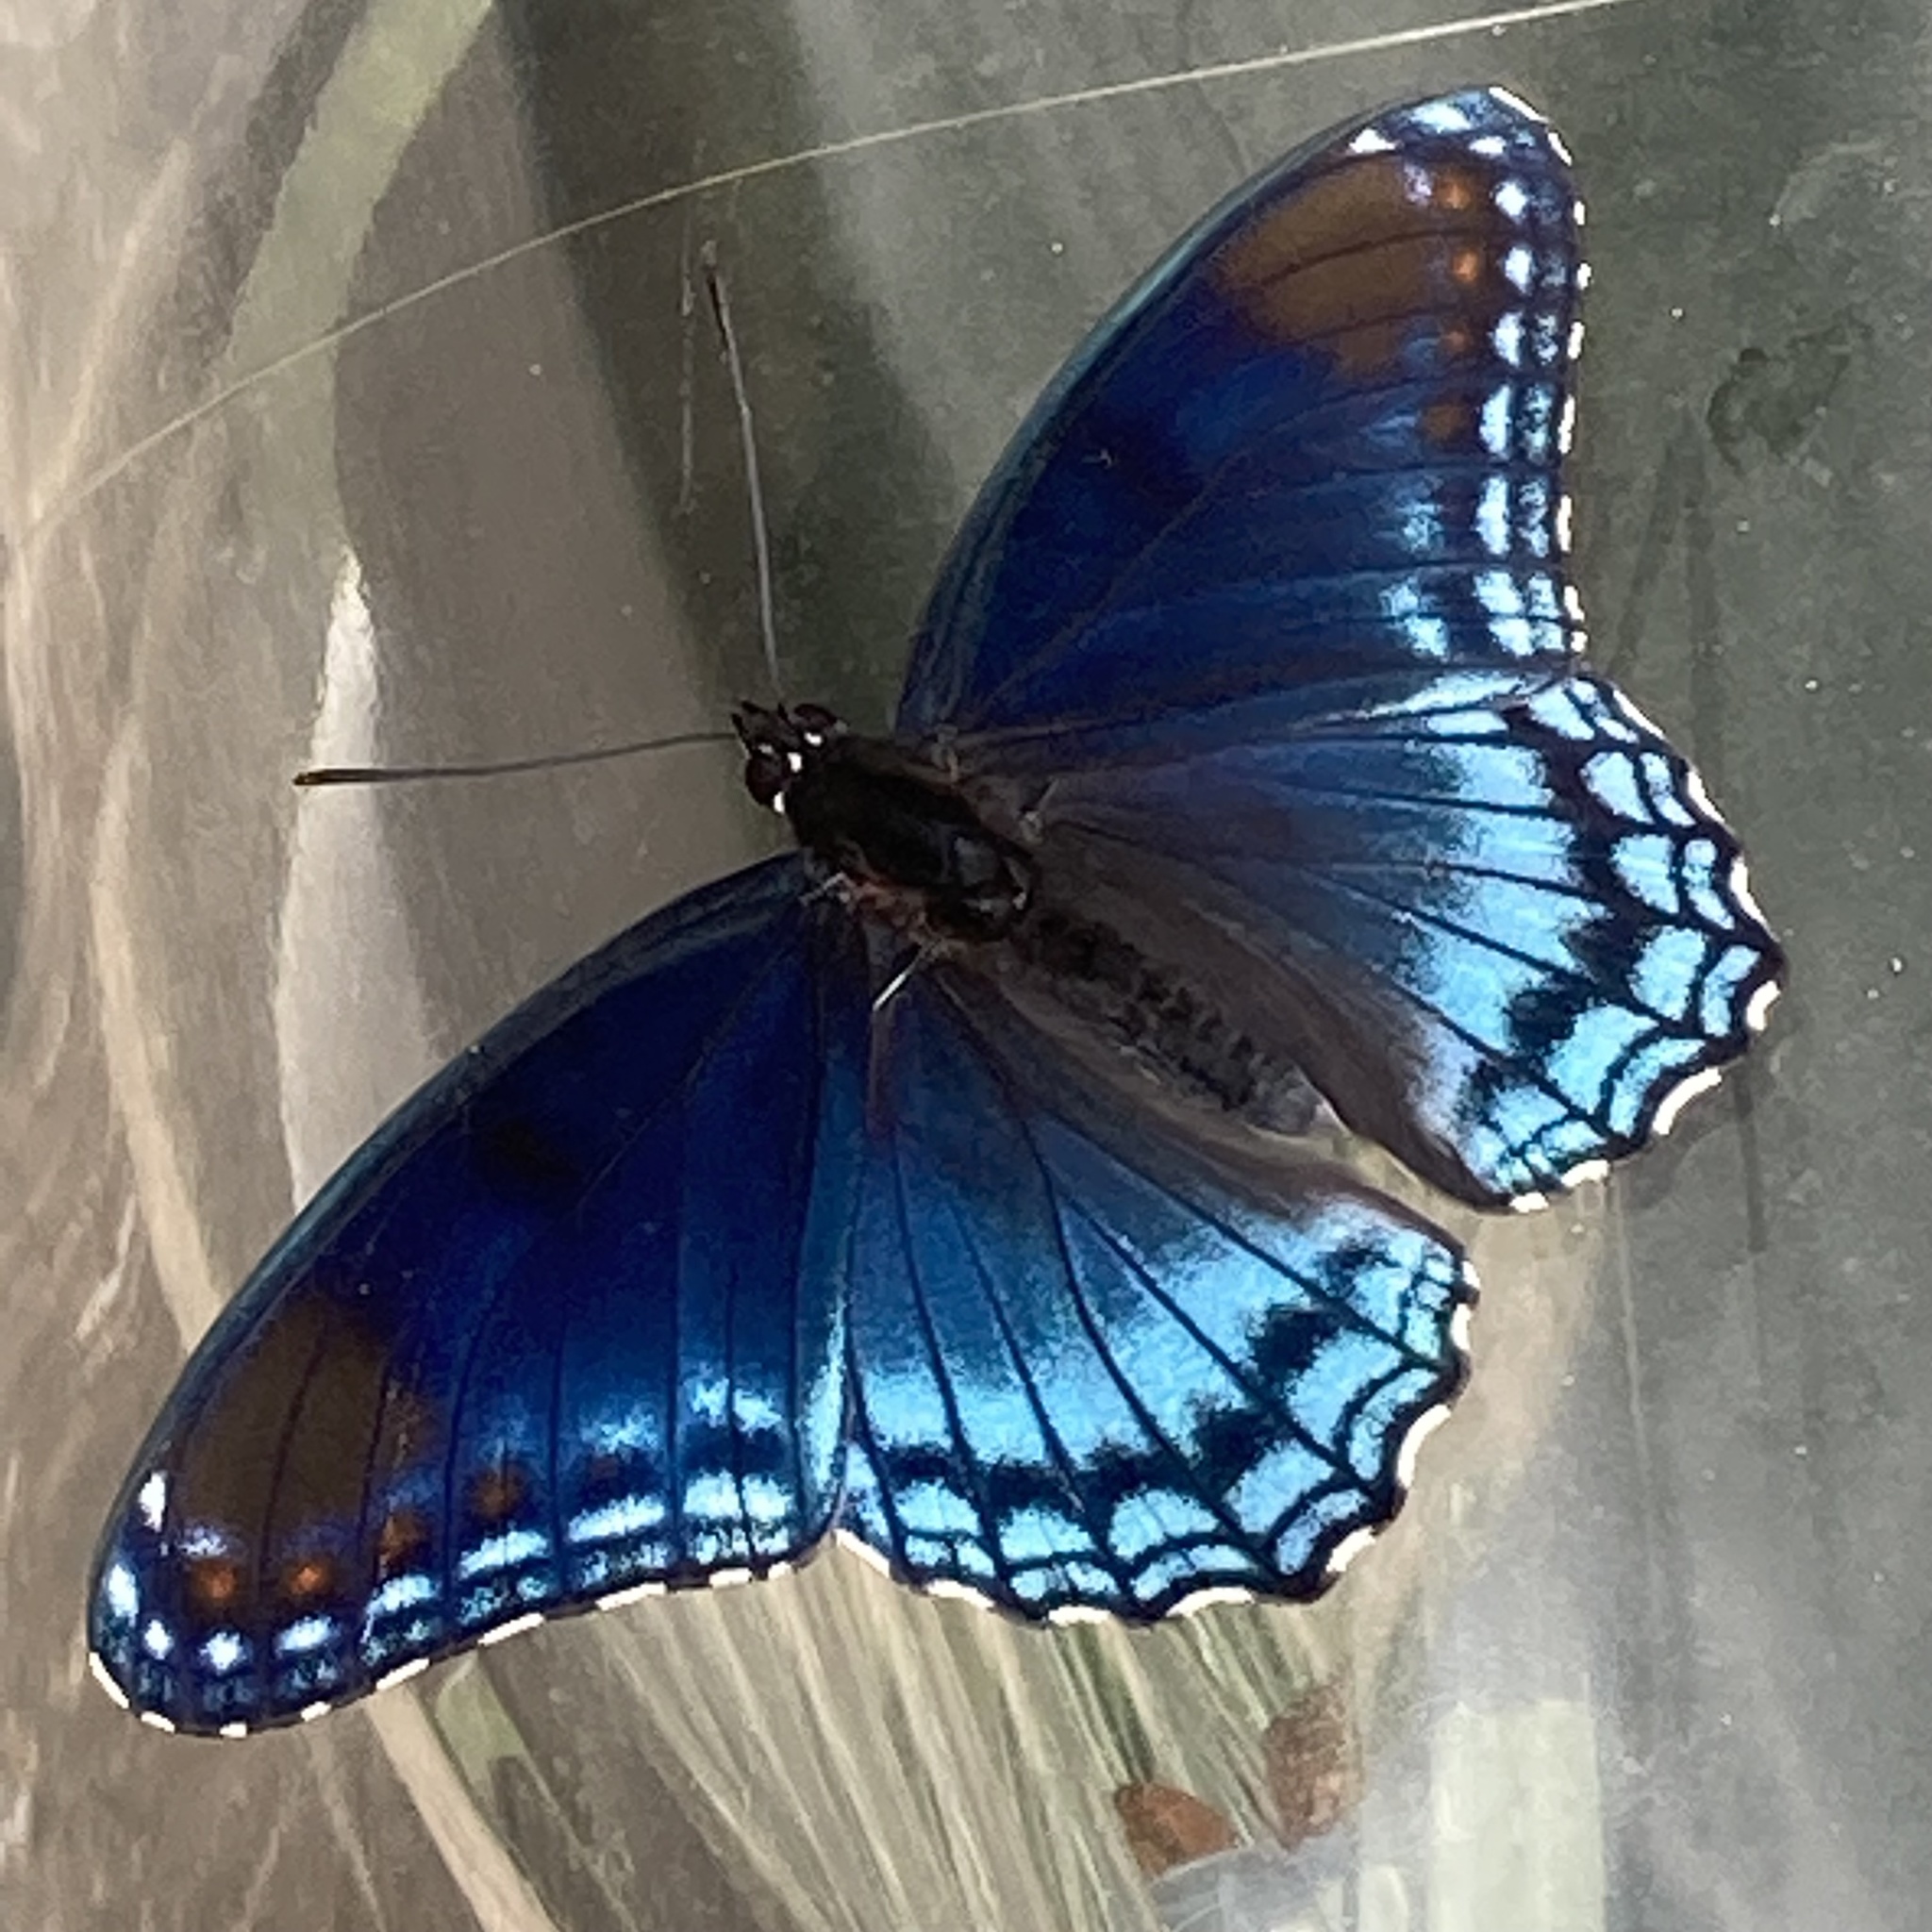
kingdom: Animalia
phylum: Arthropoda
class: Insecta
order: Lepidoptera
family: Nymphalidae
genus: Limenitis
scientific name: Limenitis astyanax
